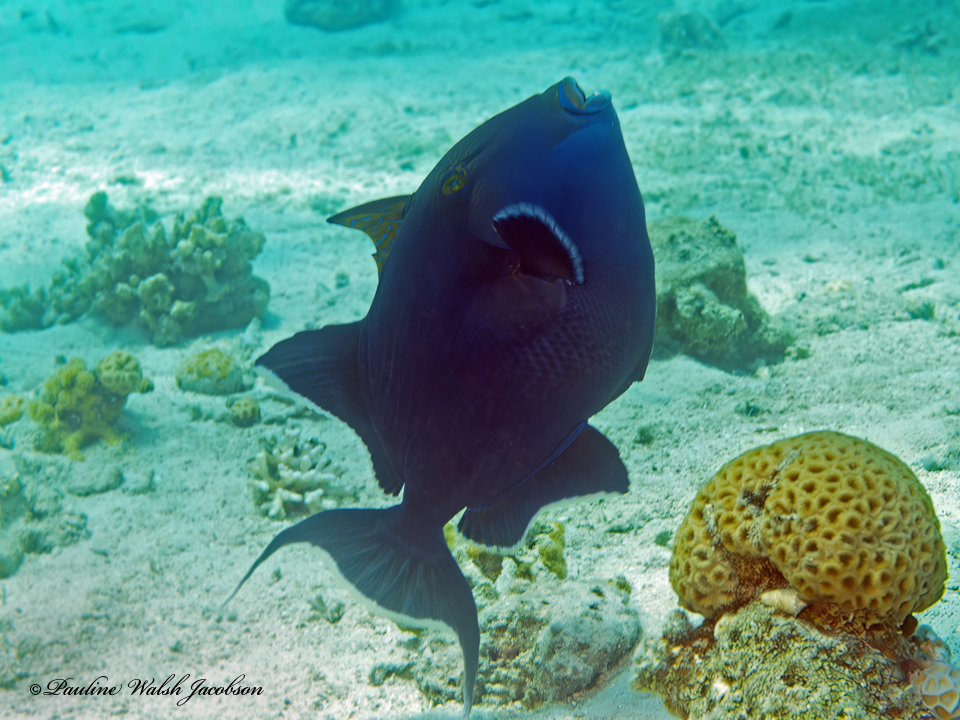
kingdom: Animalia
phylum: Chordata
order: Tetraodontiformes
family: Balistidae
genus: Pseudobalistes
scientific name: Pseudobalistes fuscus
